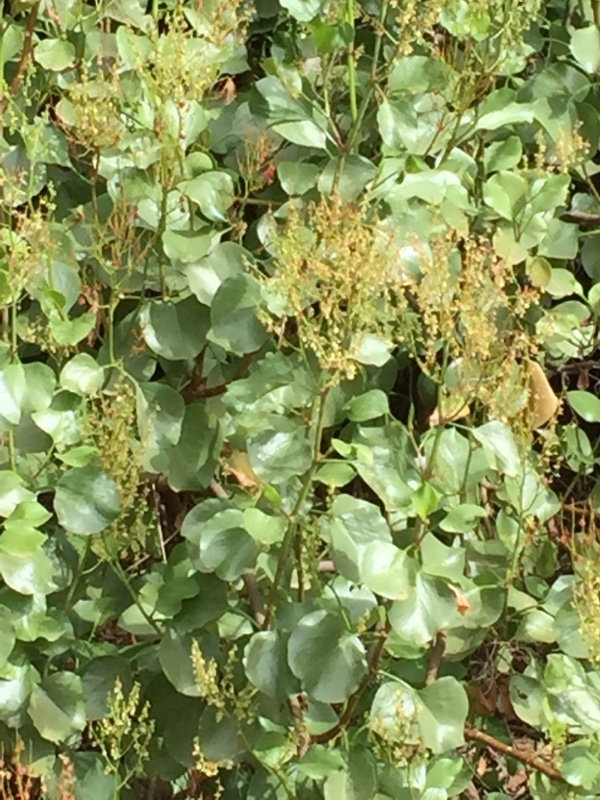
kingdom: Plantae
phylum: Tracheophyta
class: Magnoliopsida
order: Caryophyllales
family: Polygonaceae
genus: Rumex
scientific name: Rumex lunaria
